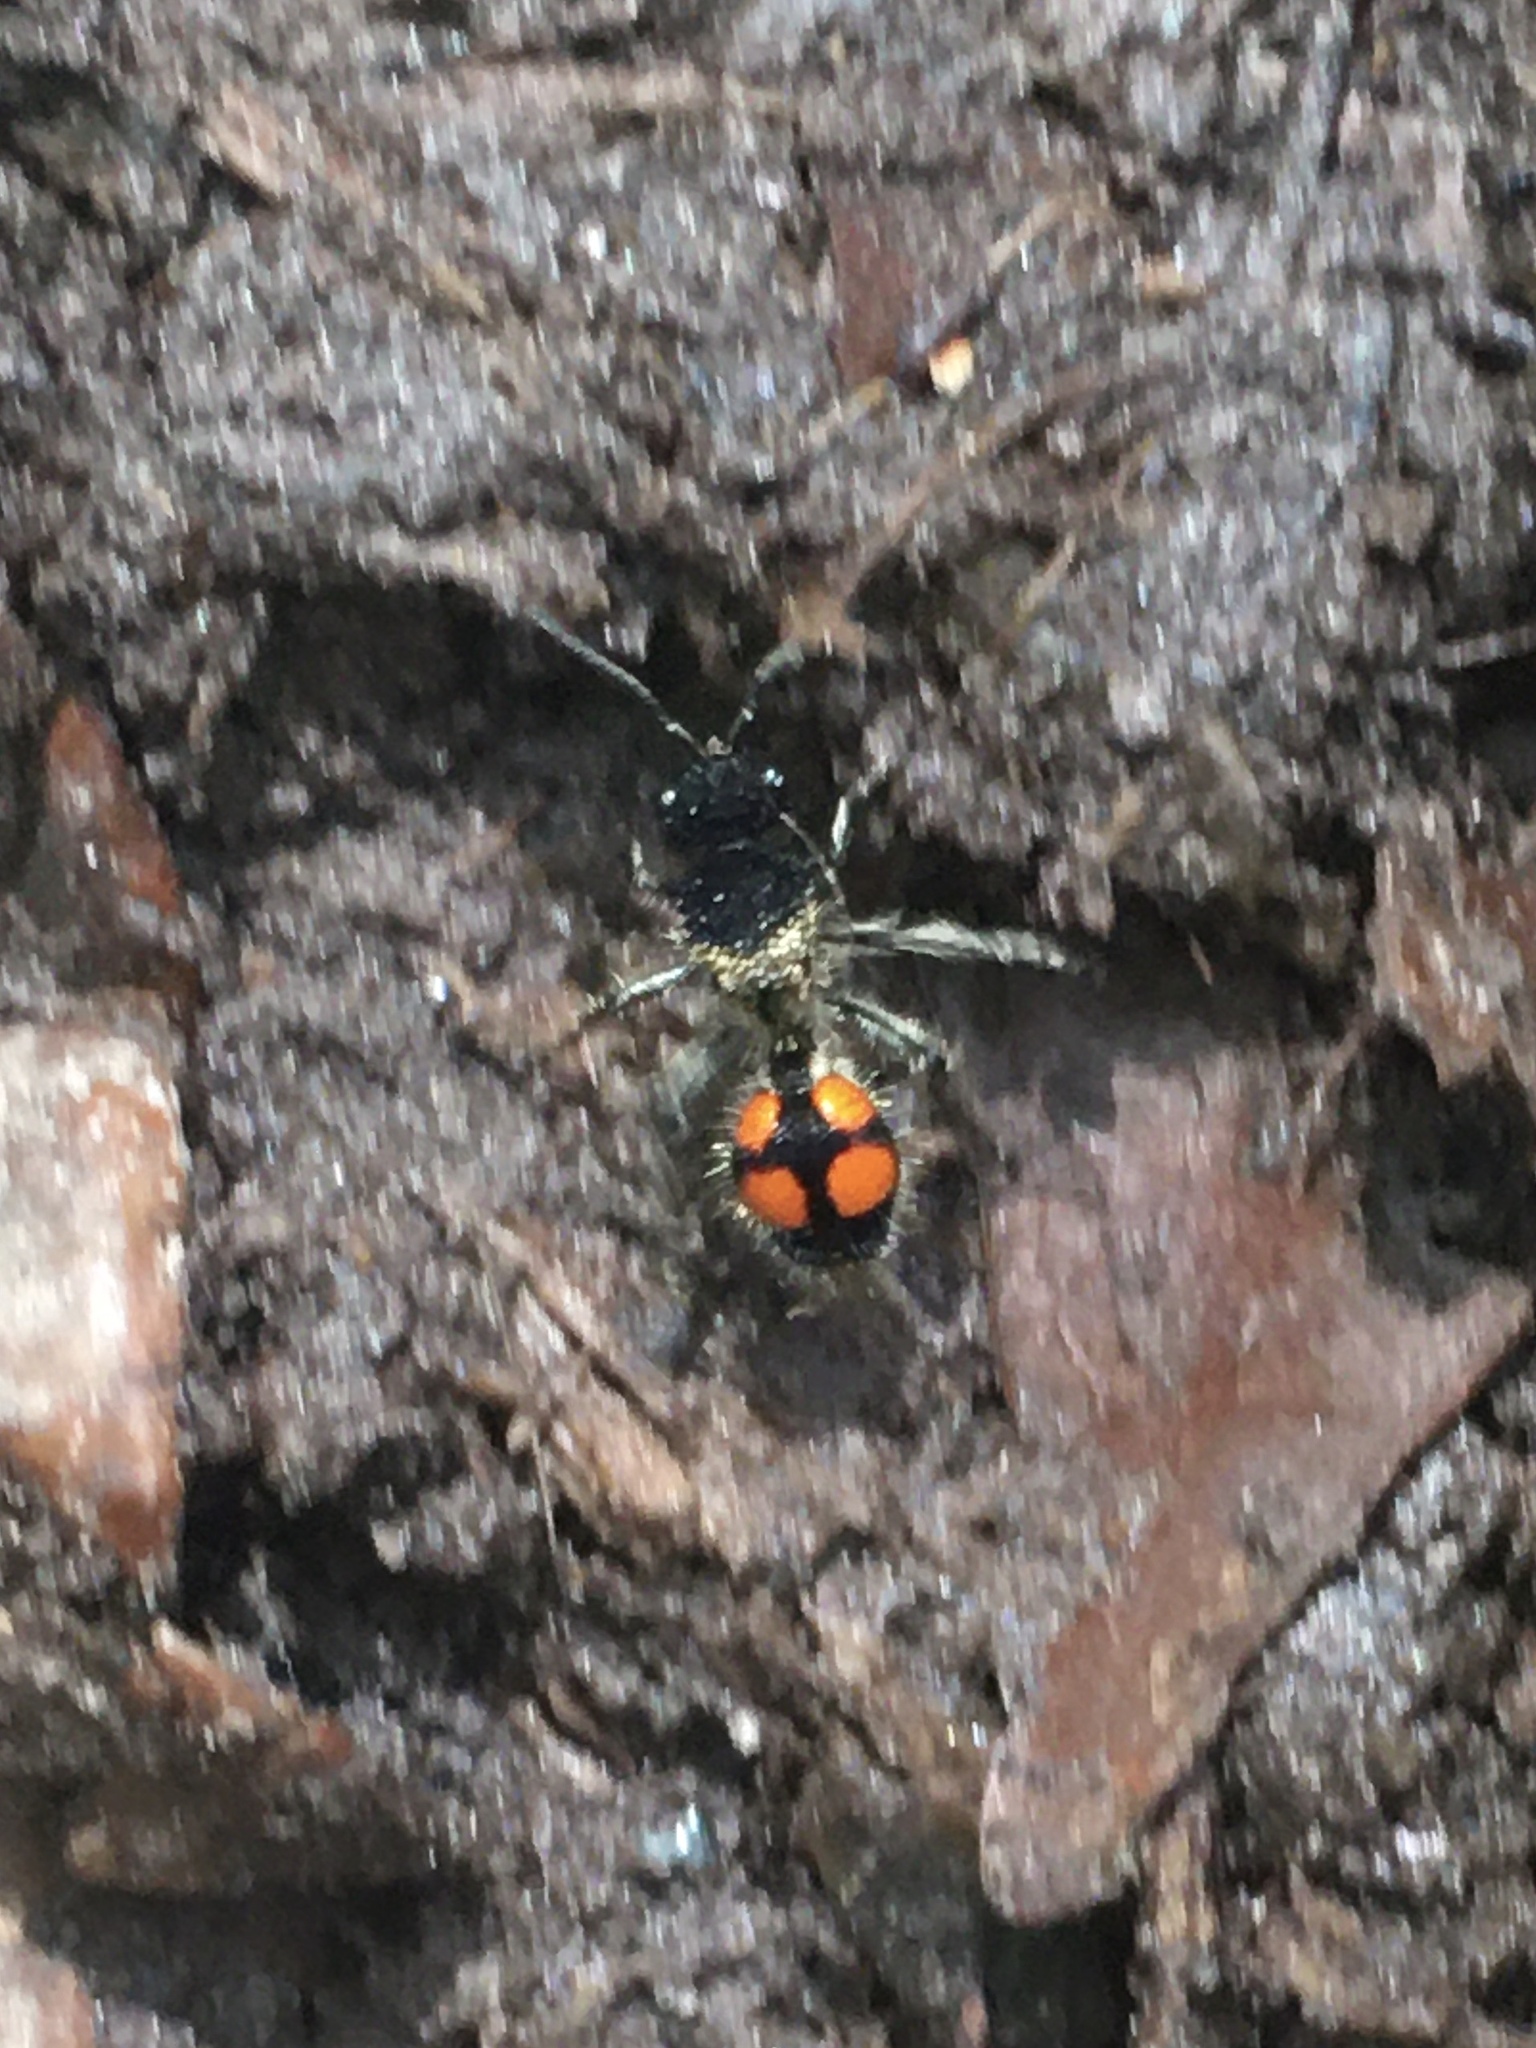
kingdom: Animalia
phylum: Arthropoda
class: Insecta
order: Hymenoptera
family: Mutillidae
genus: Traumatomutilla
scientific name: Traumatomutilla
